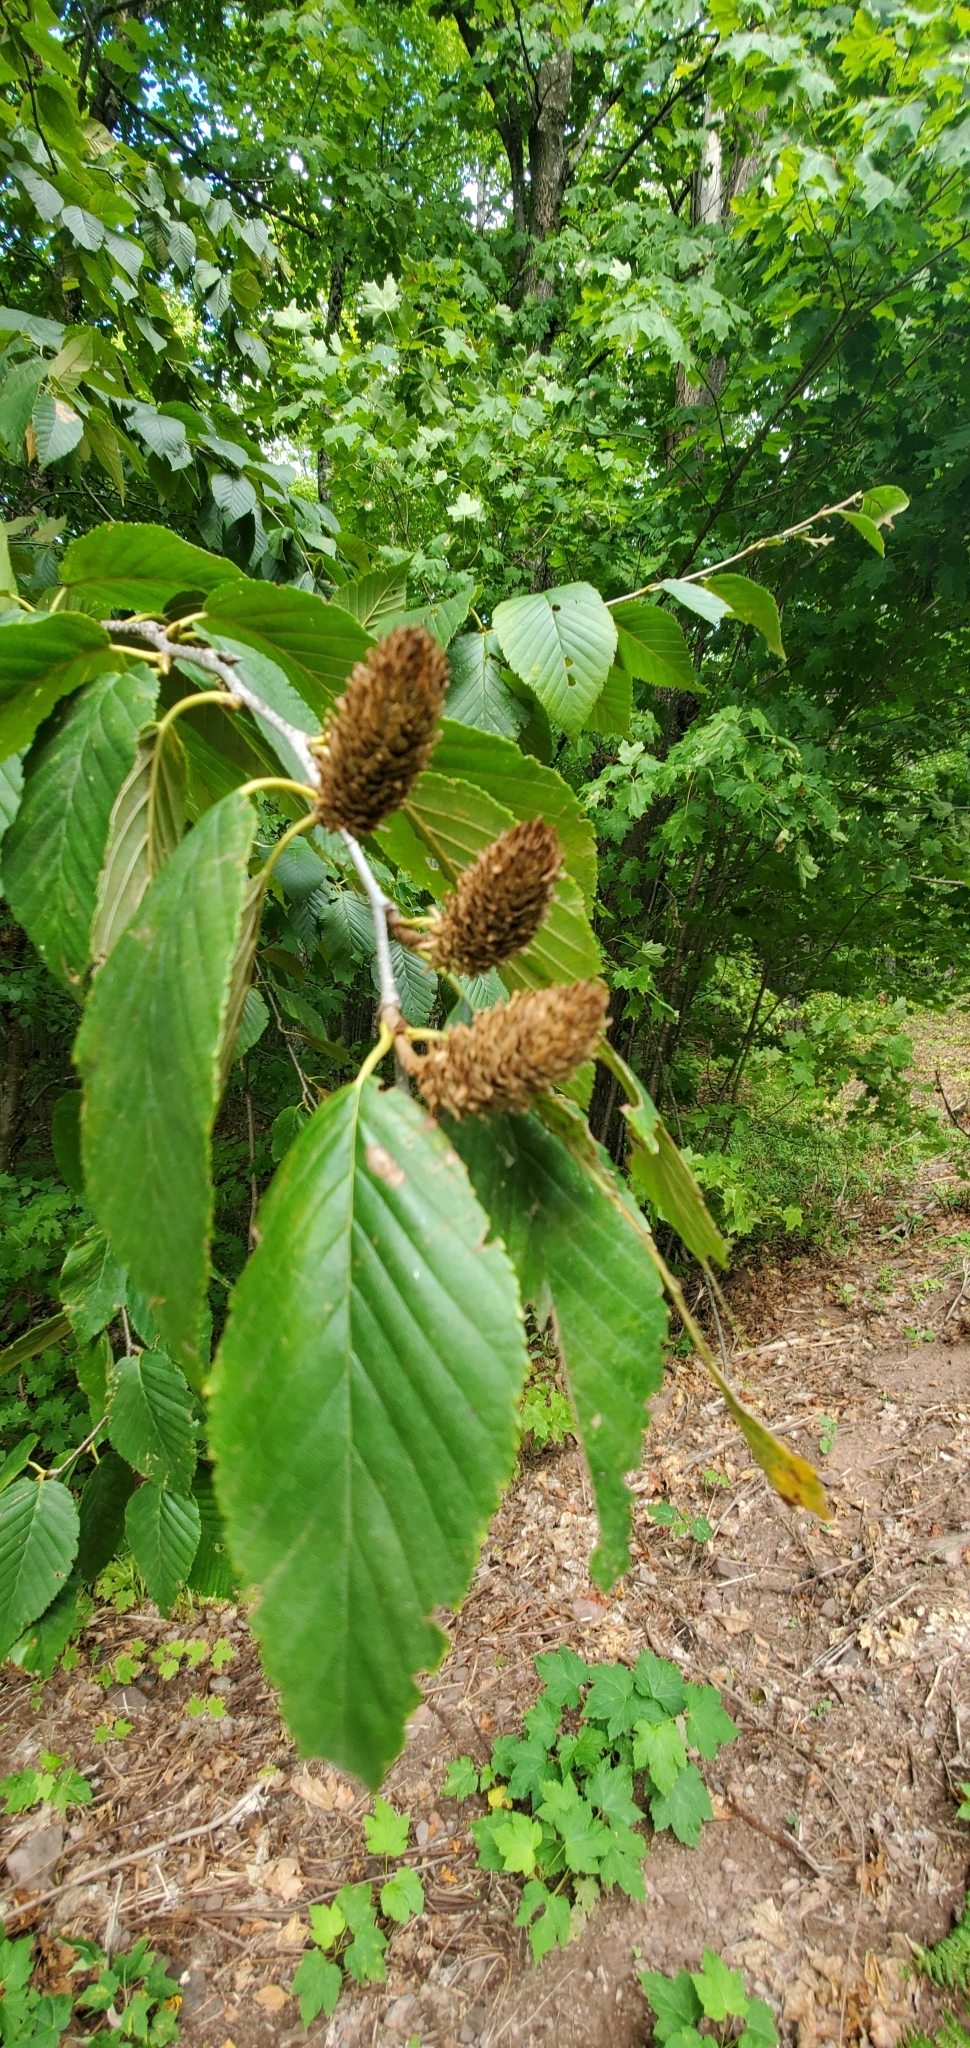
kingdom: Plantae
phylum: Tracheophyta
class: Magnoliopsida
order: Fagales
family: Betulaceae
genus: Betula
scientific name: Betula alleghaniensis
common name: Yellow birch
